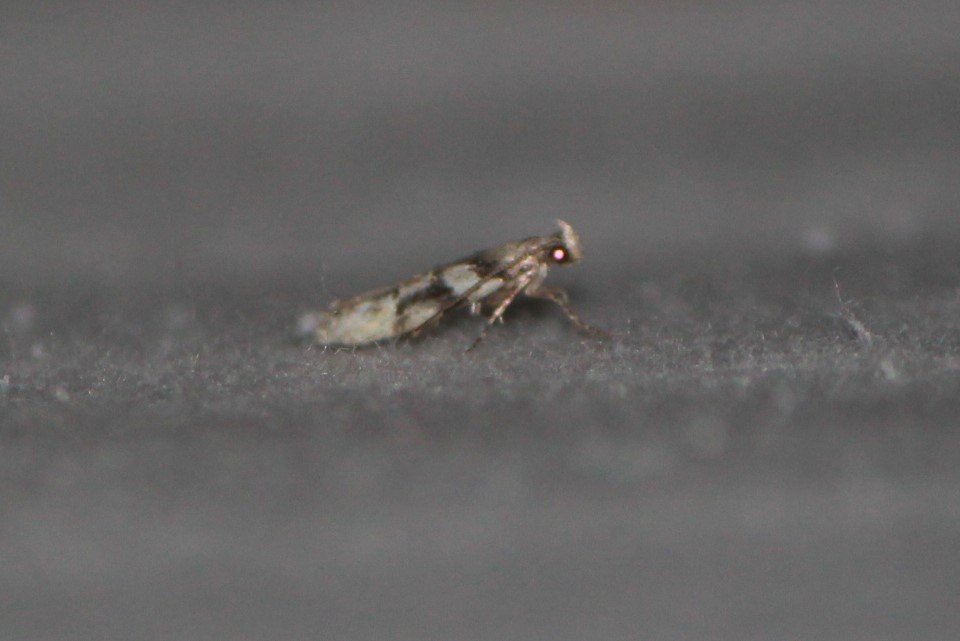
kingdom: Animalia
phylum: Arthropoda
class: Insecta
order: Lepidoptera
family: Gelechiidae
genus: Coleotechnites
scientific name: Coleotechnites atrupictella
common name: Spruce micromoth
